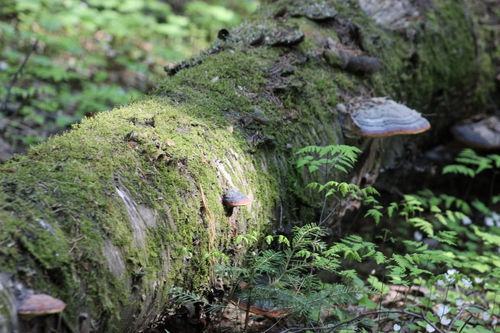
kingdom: Fungi
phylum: Basidiomycota
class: Agaricomycetes
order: Polyporales
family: Fomitopsidaceae
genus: Fomitopsis
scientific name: Fomitopsis pinicola
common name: Red-belted bracket
